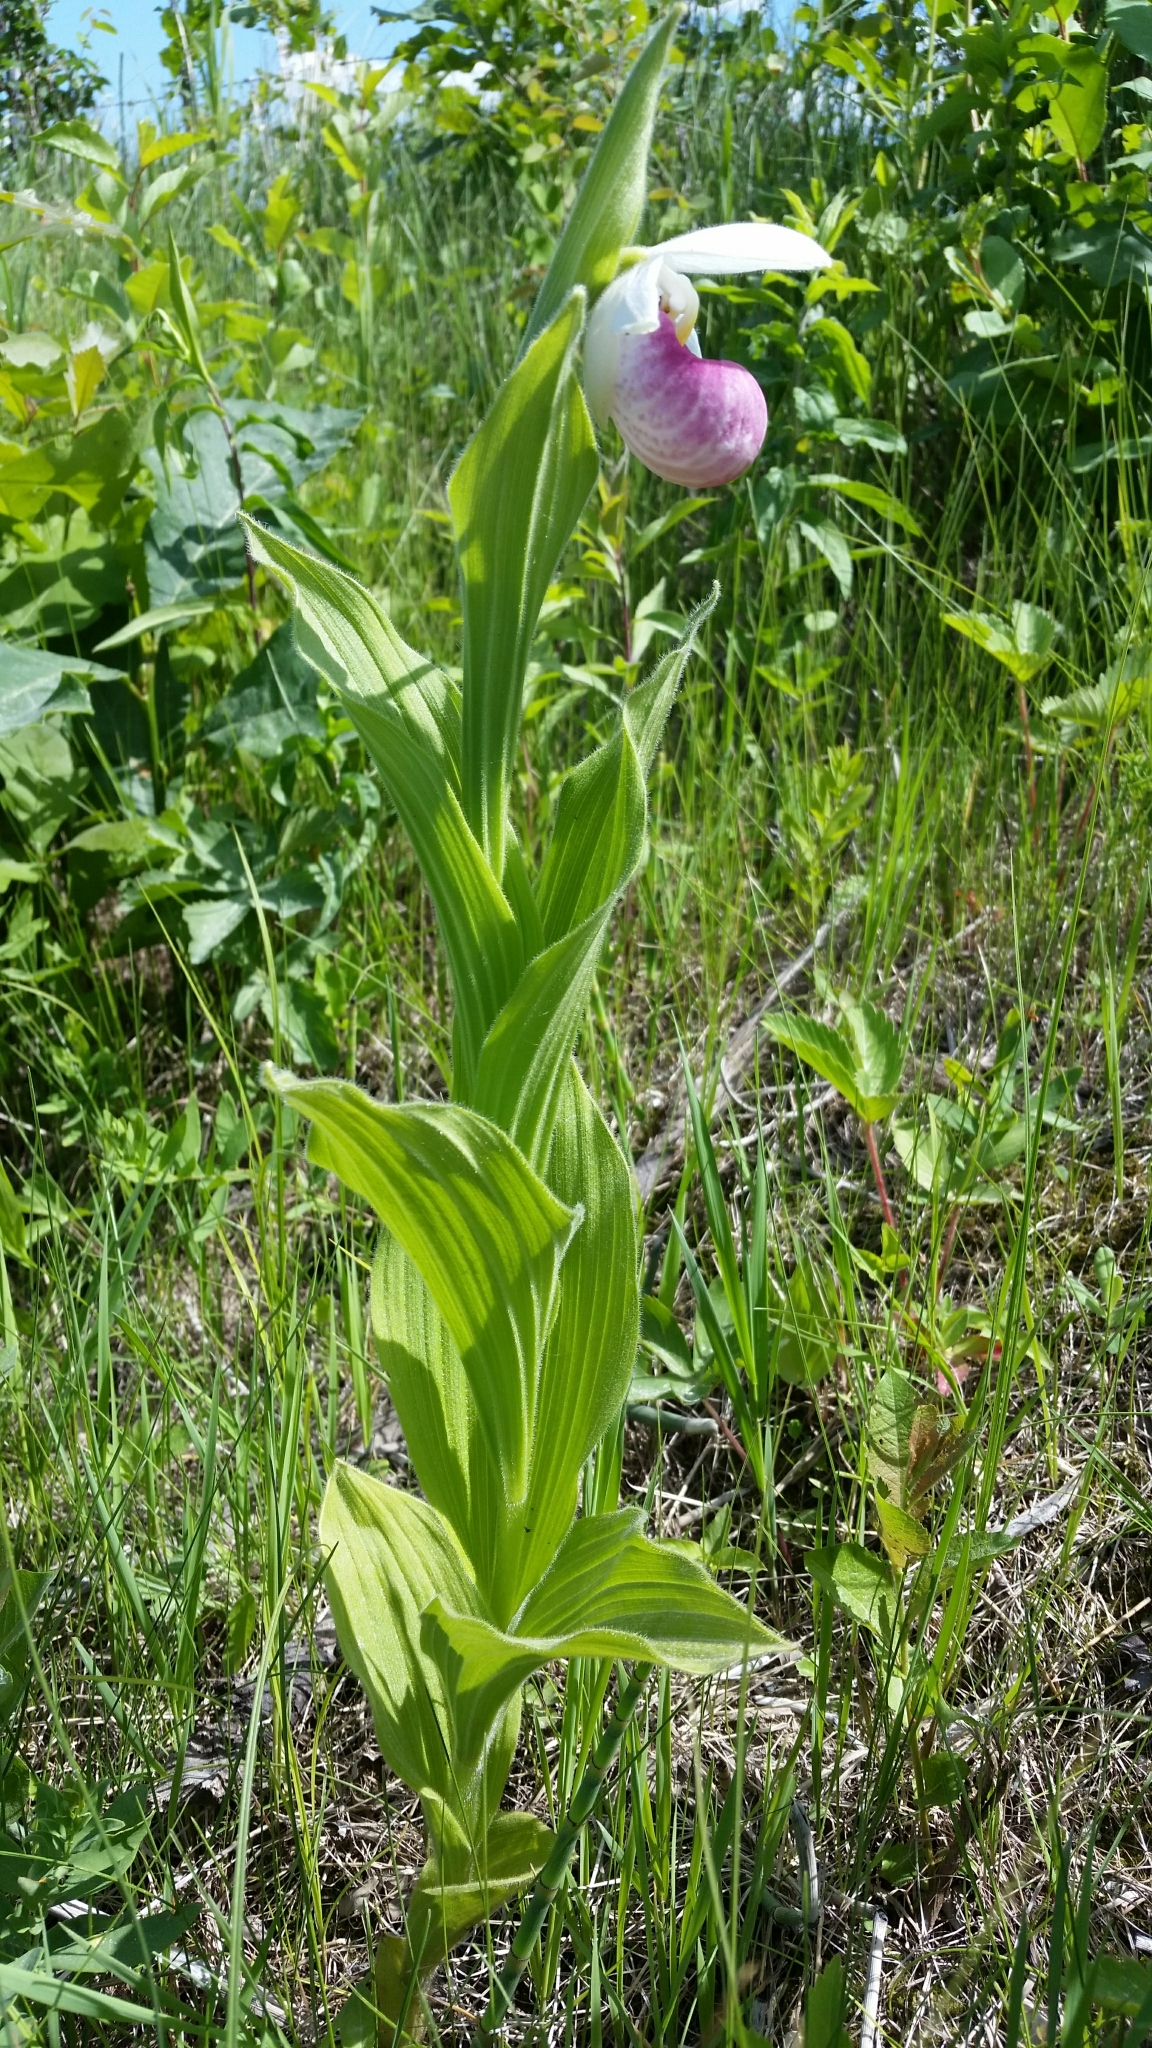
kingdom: Plantae
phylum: Tracheophyta
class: Liliopsida
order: Asparagales
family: Orchidaceae
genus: Cypripedium
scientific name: Cypripedium reginae
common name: Queen lady's-slipper
